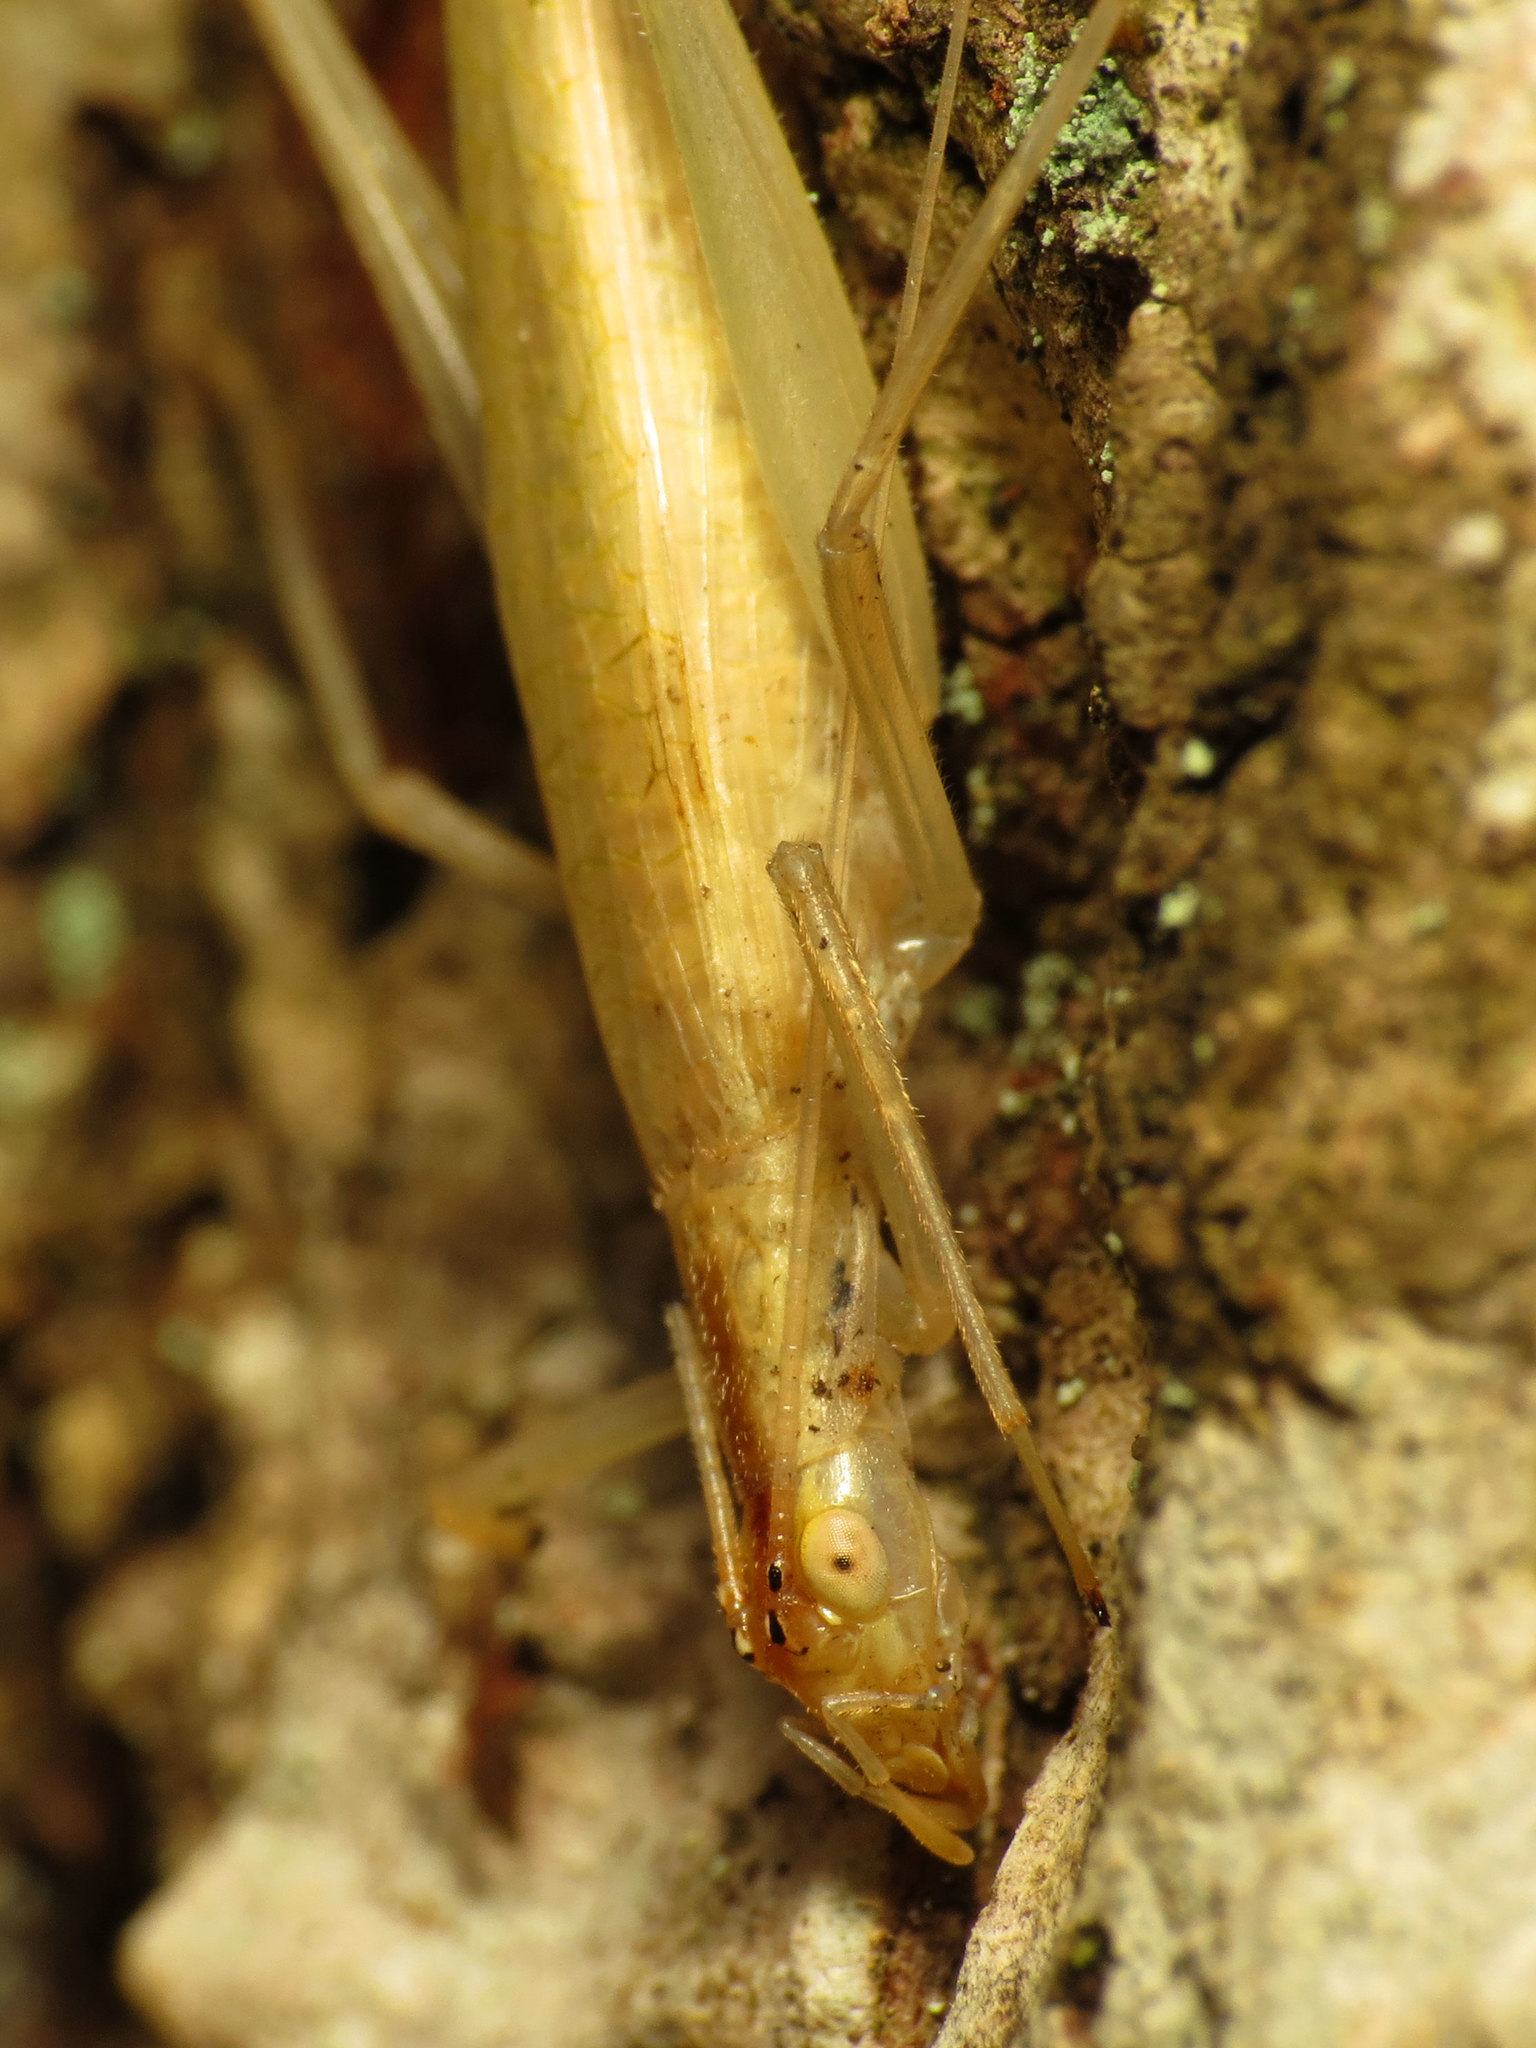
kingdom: Animalia
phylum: Arthropoda
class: Insecta
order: Orthoptera
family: Gryllidae
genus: Oecanthus
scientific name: Oecanthus niveus
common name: Narrow-winged tree cricket
